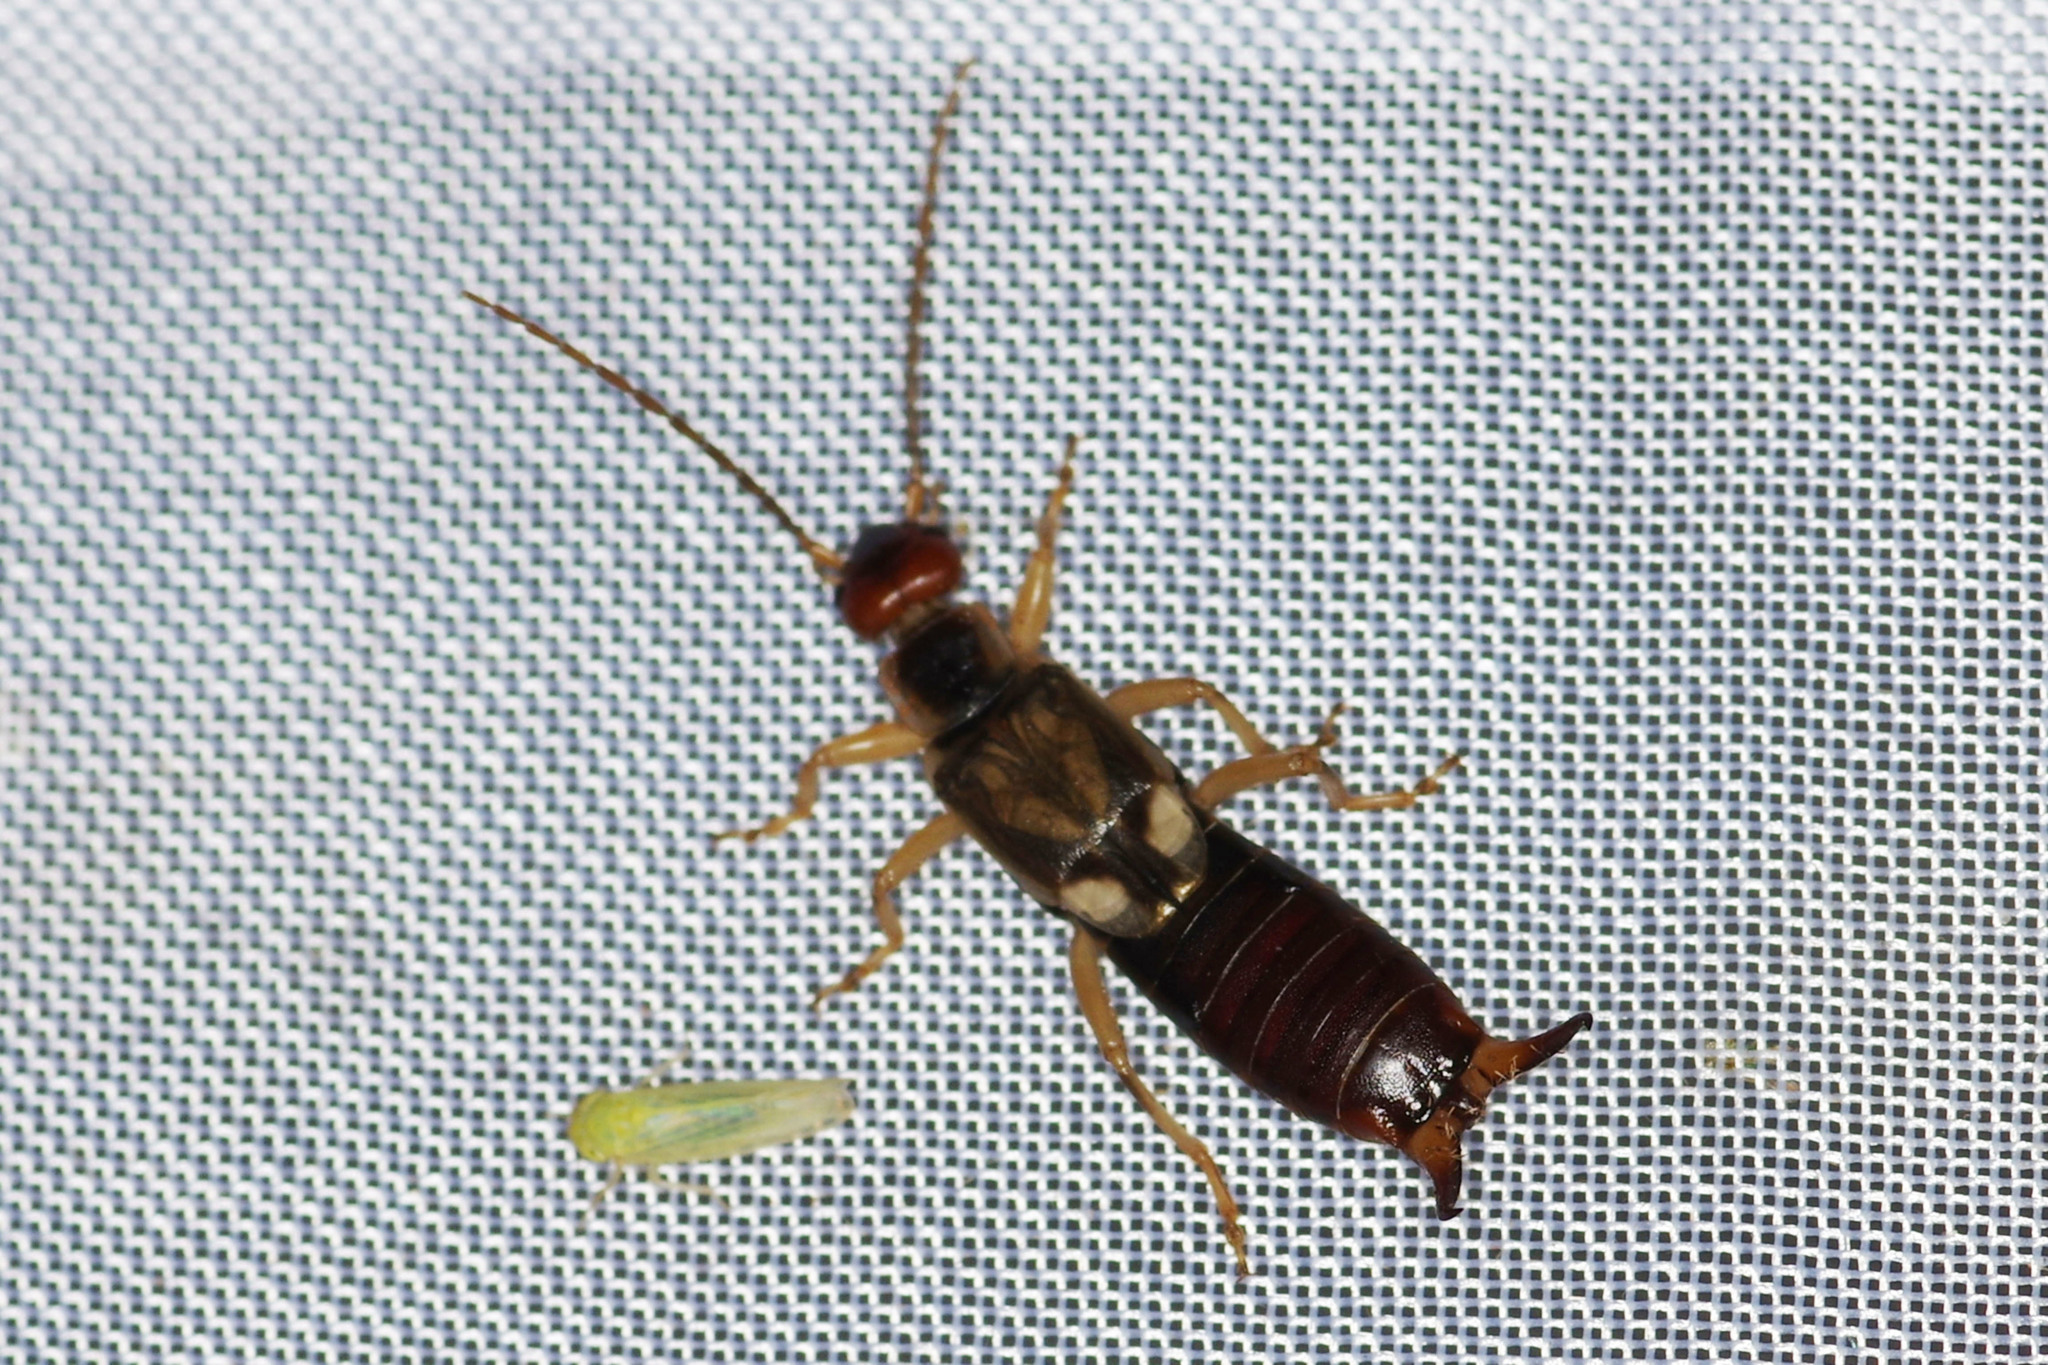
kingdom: Animalia
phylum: Arthropoda
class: Insecta
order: Dermaptera
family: Forficulidae
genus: Forficula
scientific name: Forficula
